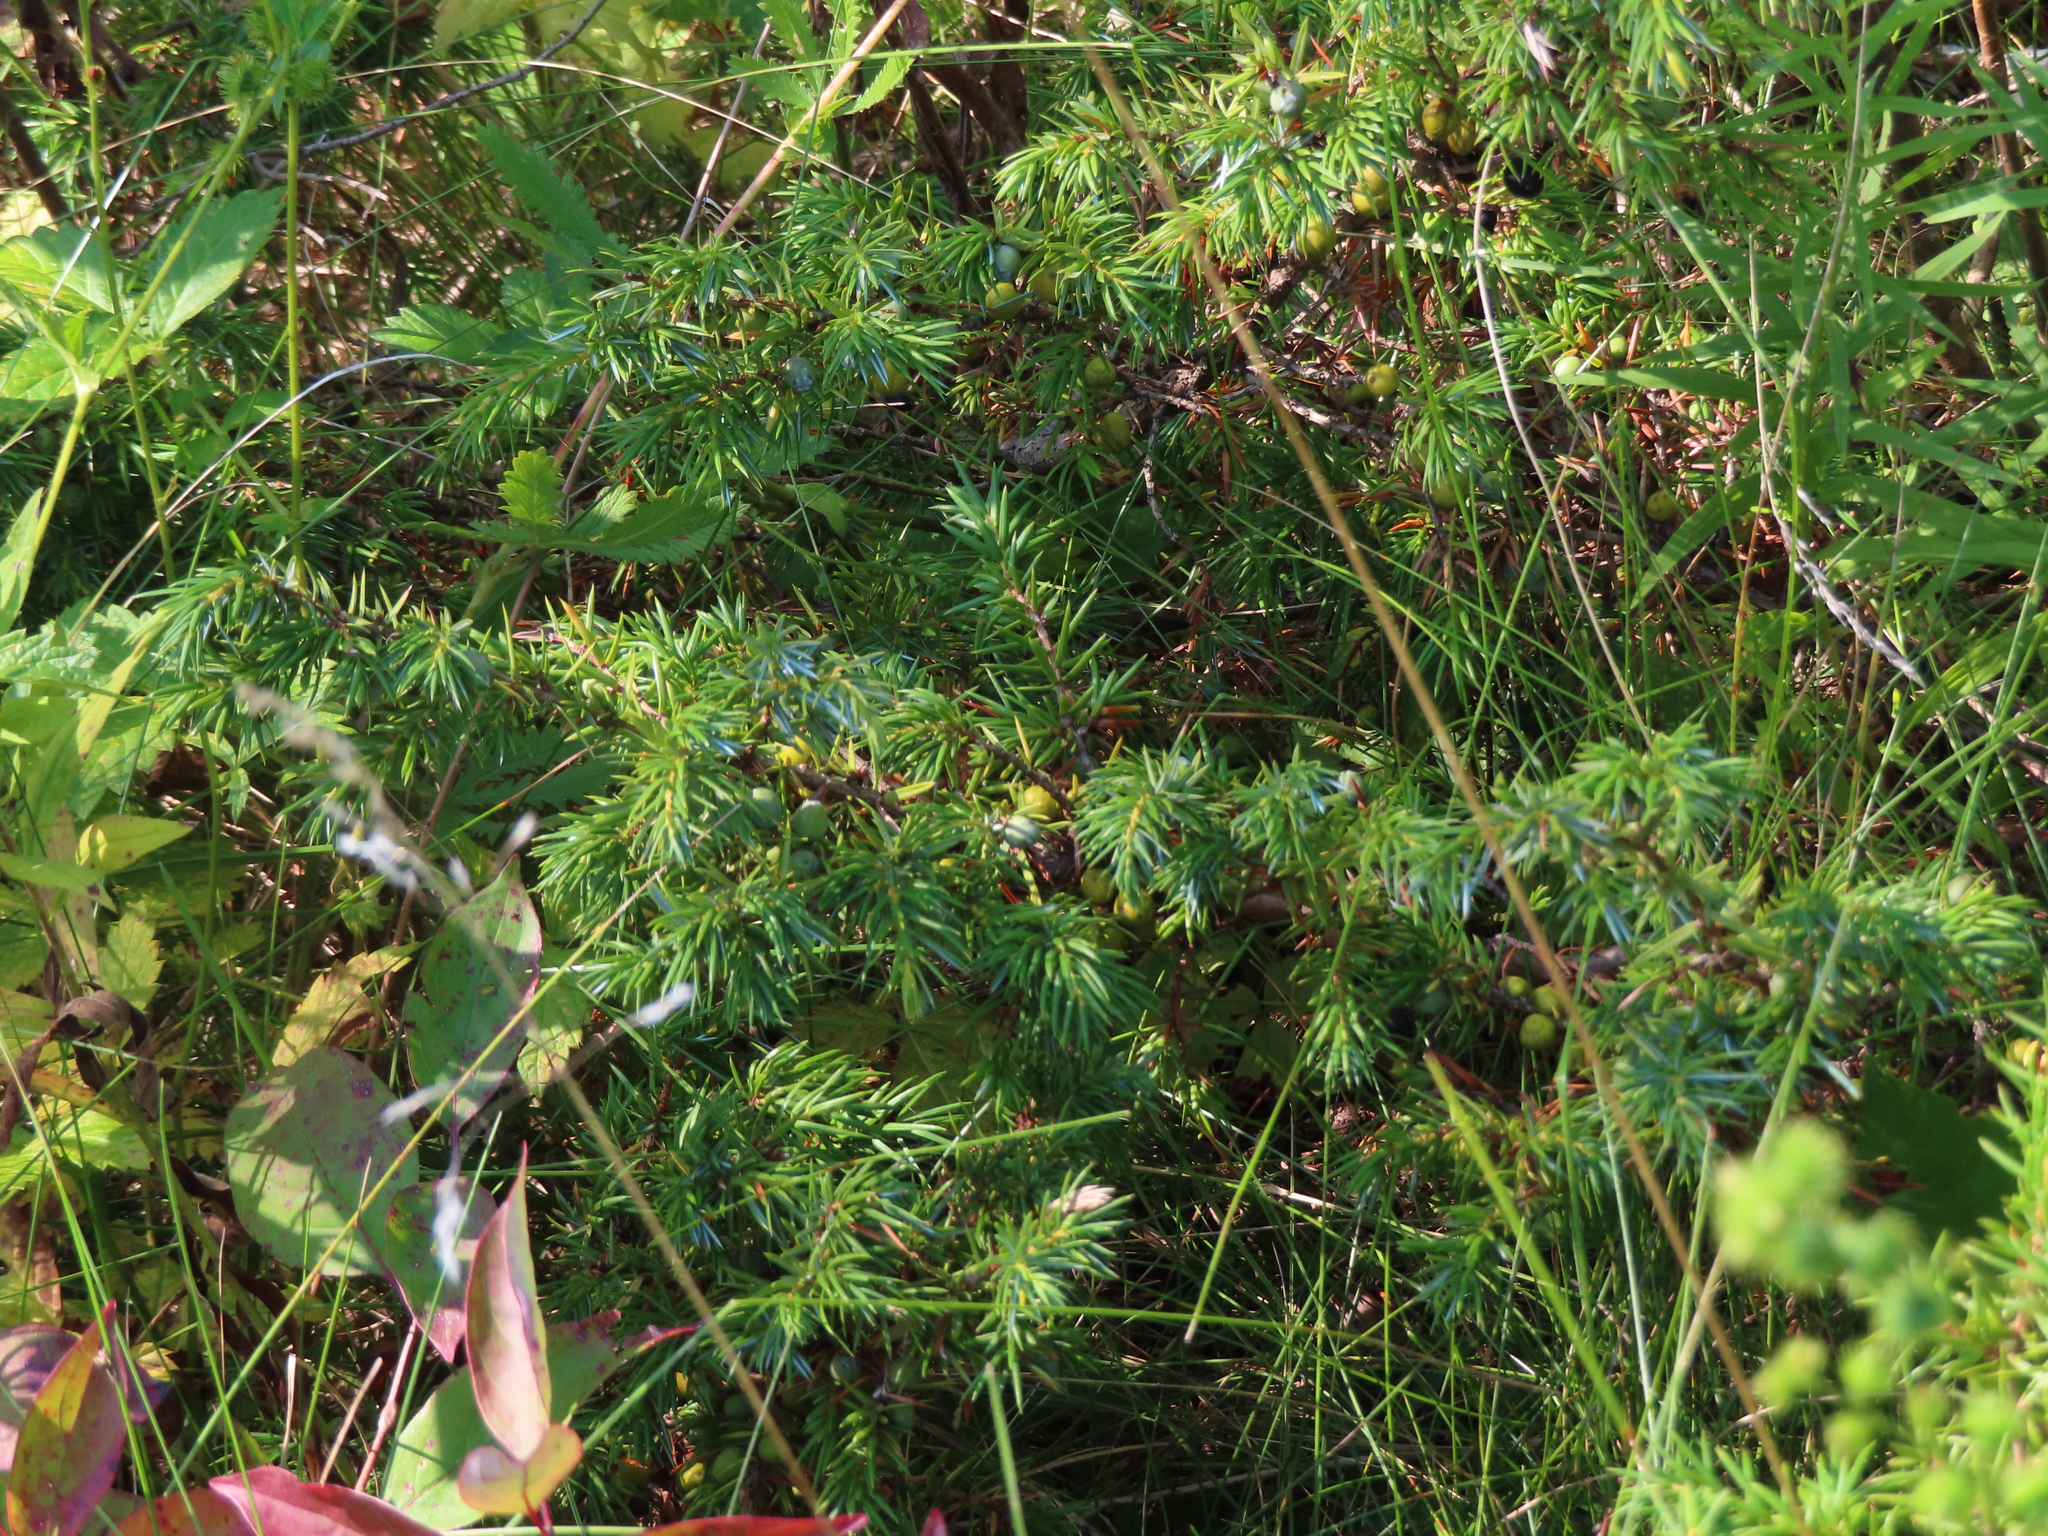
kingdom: Plantae
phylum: Tracheophyta
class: Pinopsida
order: Pinales
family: Cupressaceae
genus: Juniperus
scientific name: Juniperus communis
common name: Common juniper
